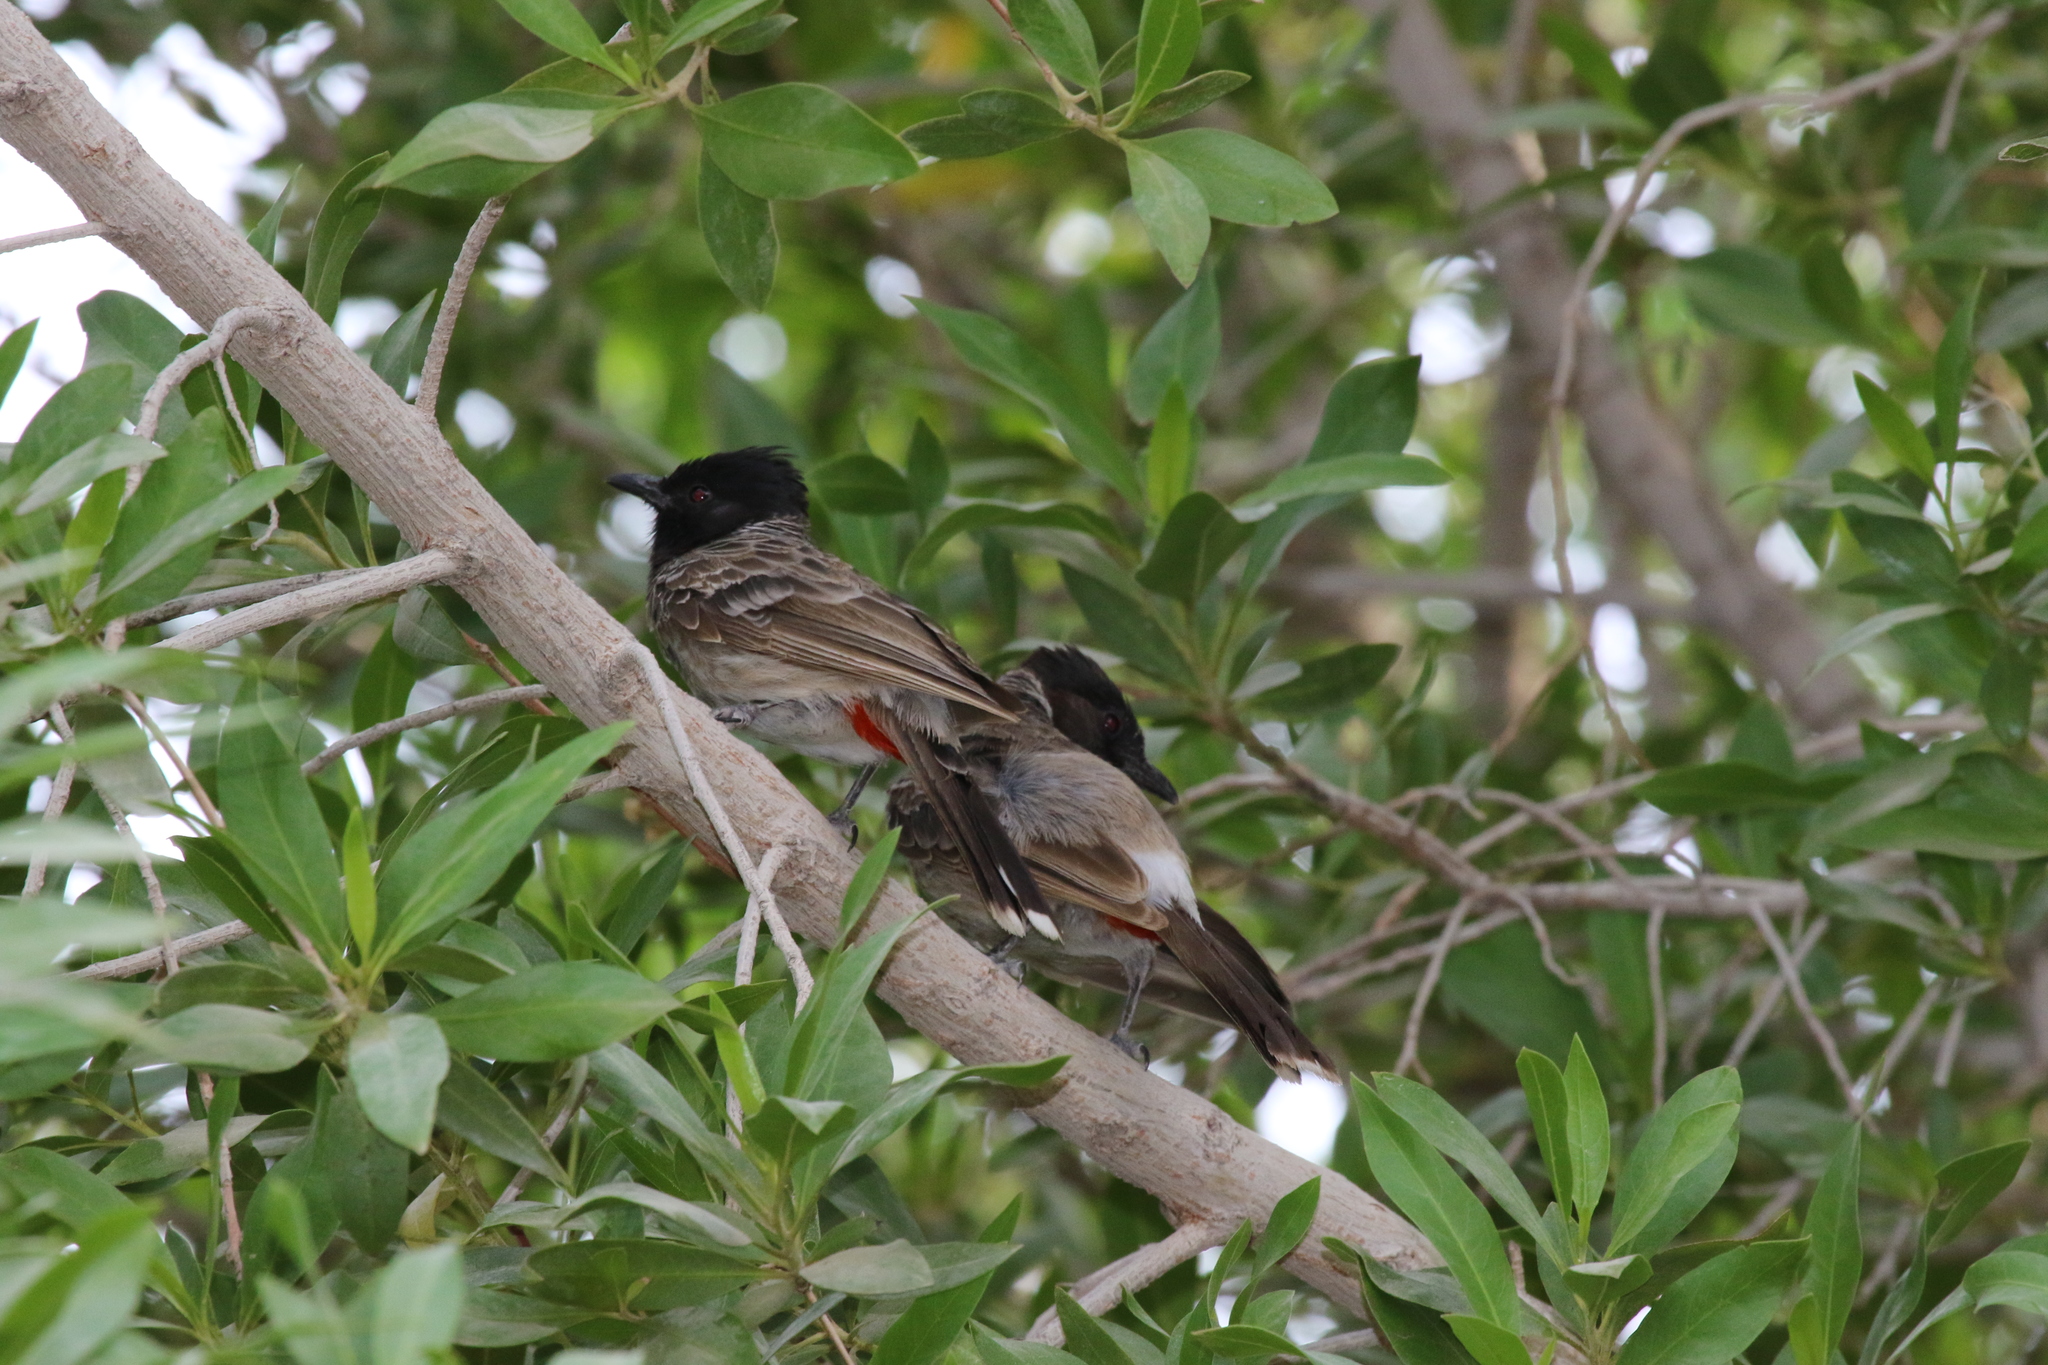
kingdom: Animalia
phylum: Chordata
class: Aves
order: Passeriformes
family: Pycnonotidae
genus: Pycnonotus
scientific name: Pycnonotus cafer
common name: Red-vented bulbul
